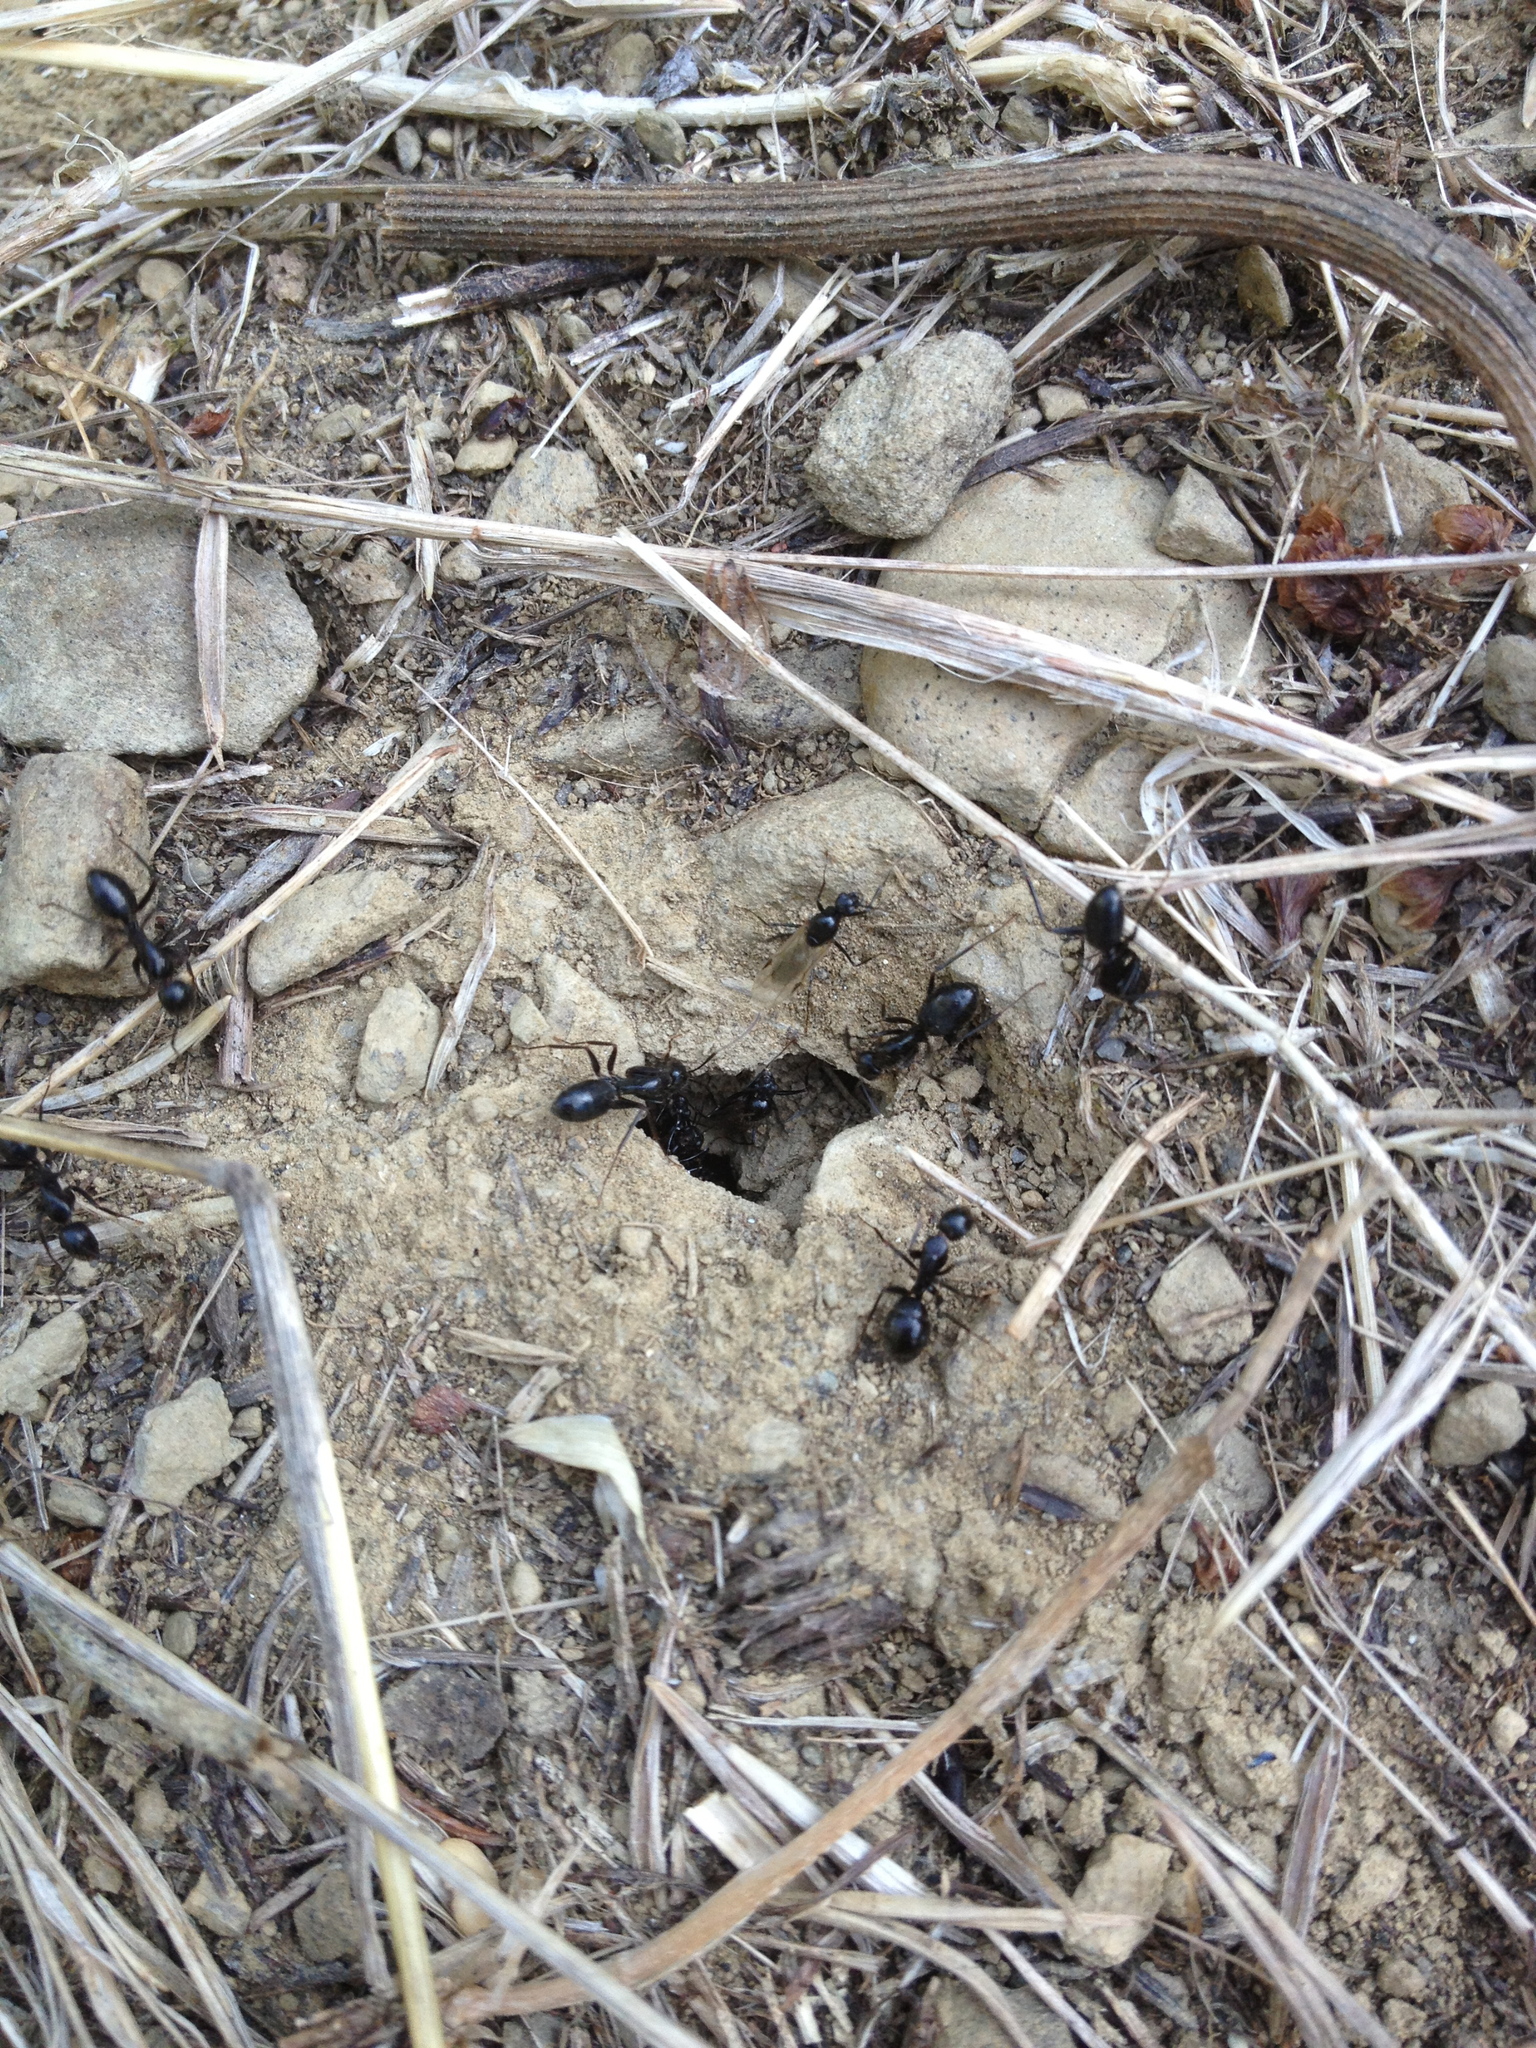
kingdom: Animalia
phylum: Arthropoda
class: Insecta
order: Hymenoptera
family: Formicidae
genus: Camponotus
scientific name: Camponotus aethiops
